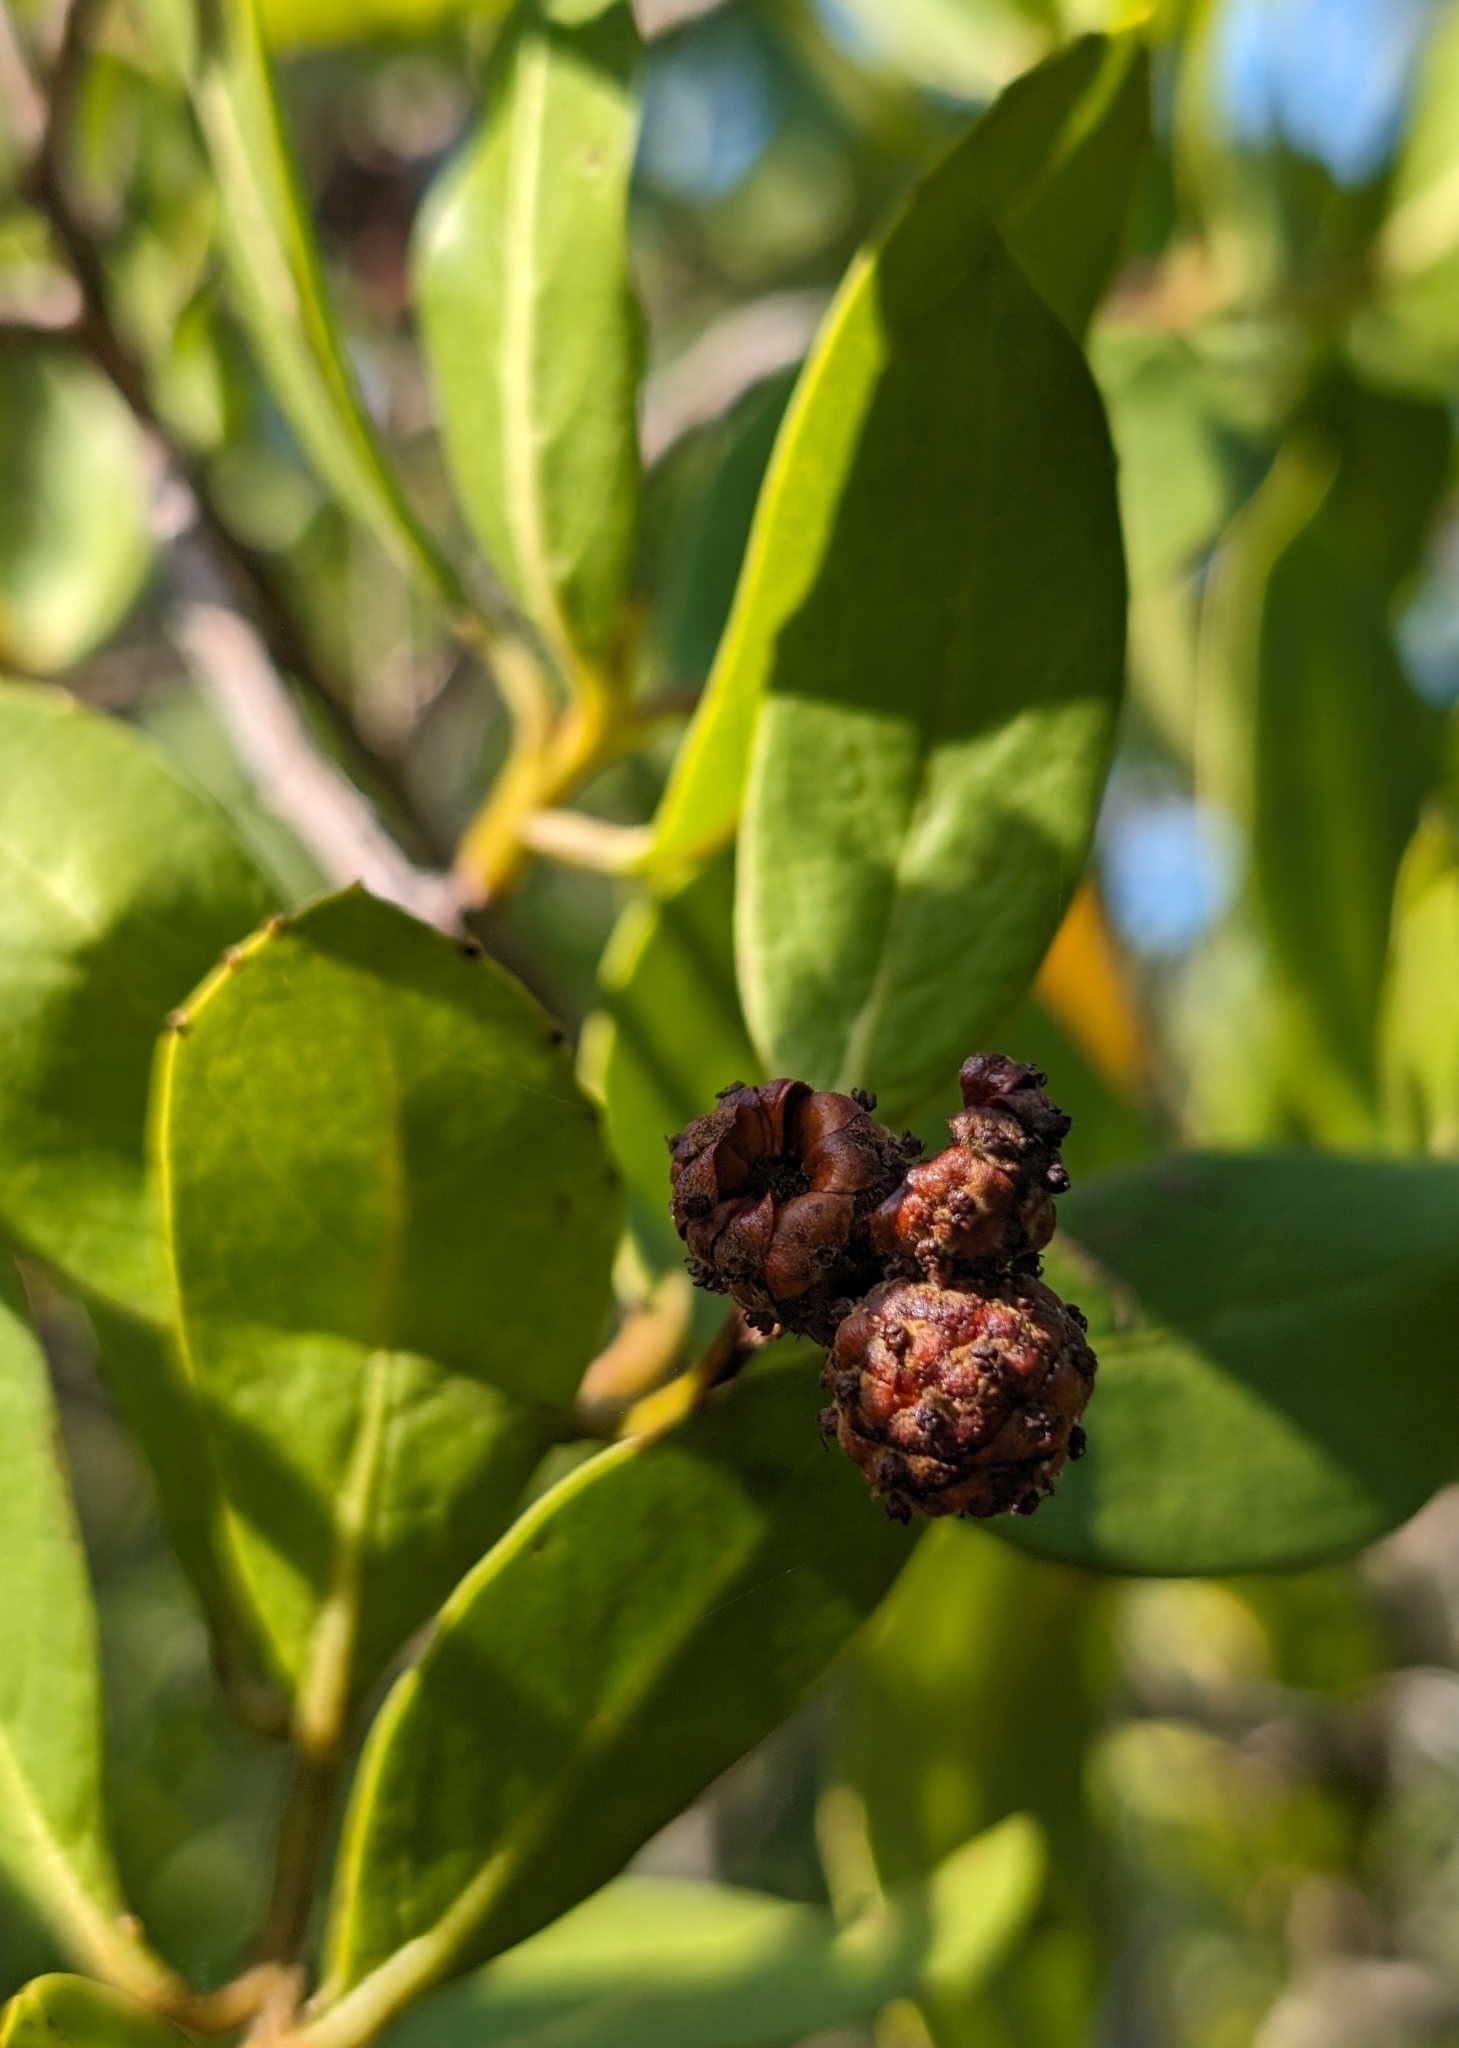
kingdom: Plantae
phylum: Tracheophyta
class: Magnoliopsida
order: Myrtales
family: Combretaceae
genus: Conocarpus
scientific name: Conocarpus erectus
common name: Button mangrove
